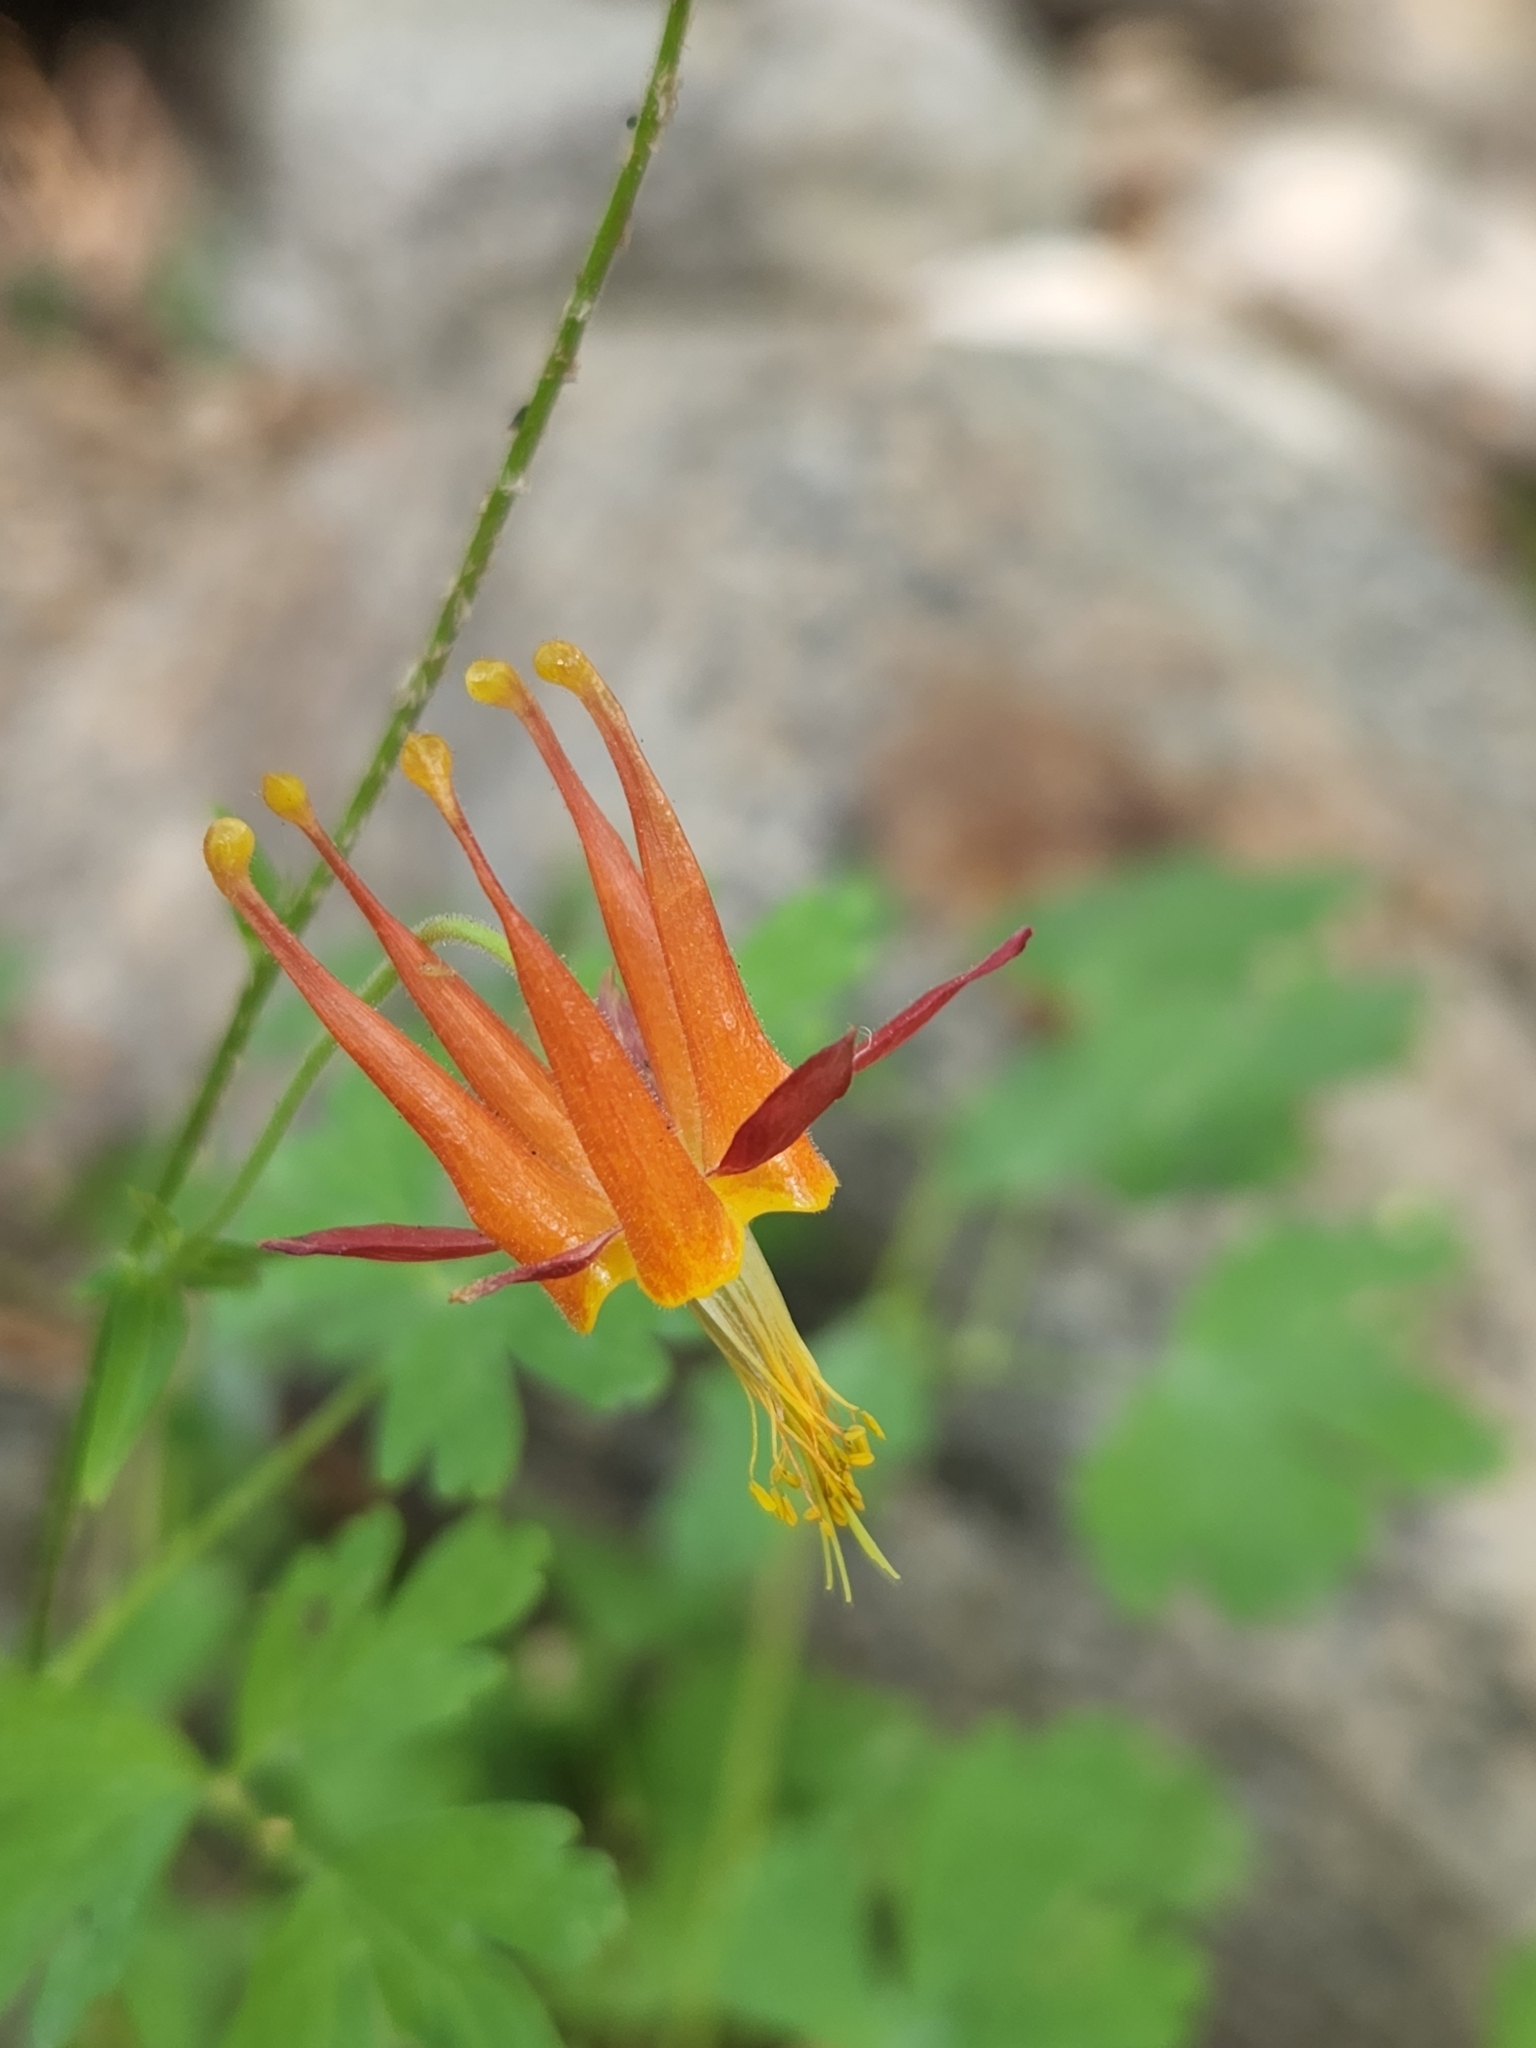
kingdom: Plantae
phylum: Tracheophyta
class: Magnoliopsida
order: Ranunculales
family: Ranunculaceae
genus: Aquilegia
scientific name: Aquilegia formosa
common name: Sitka columbine
